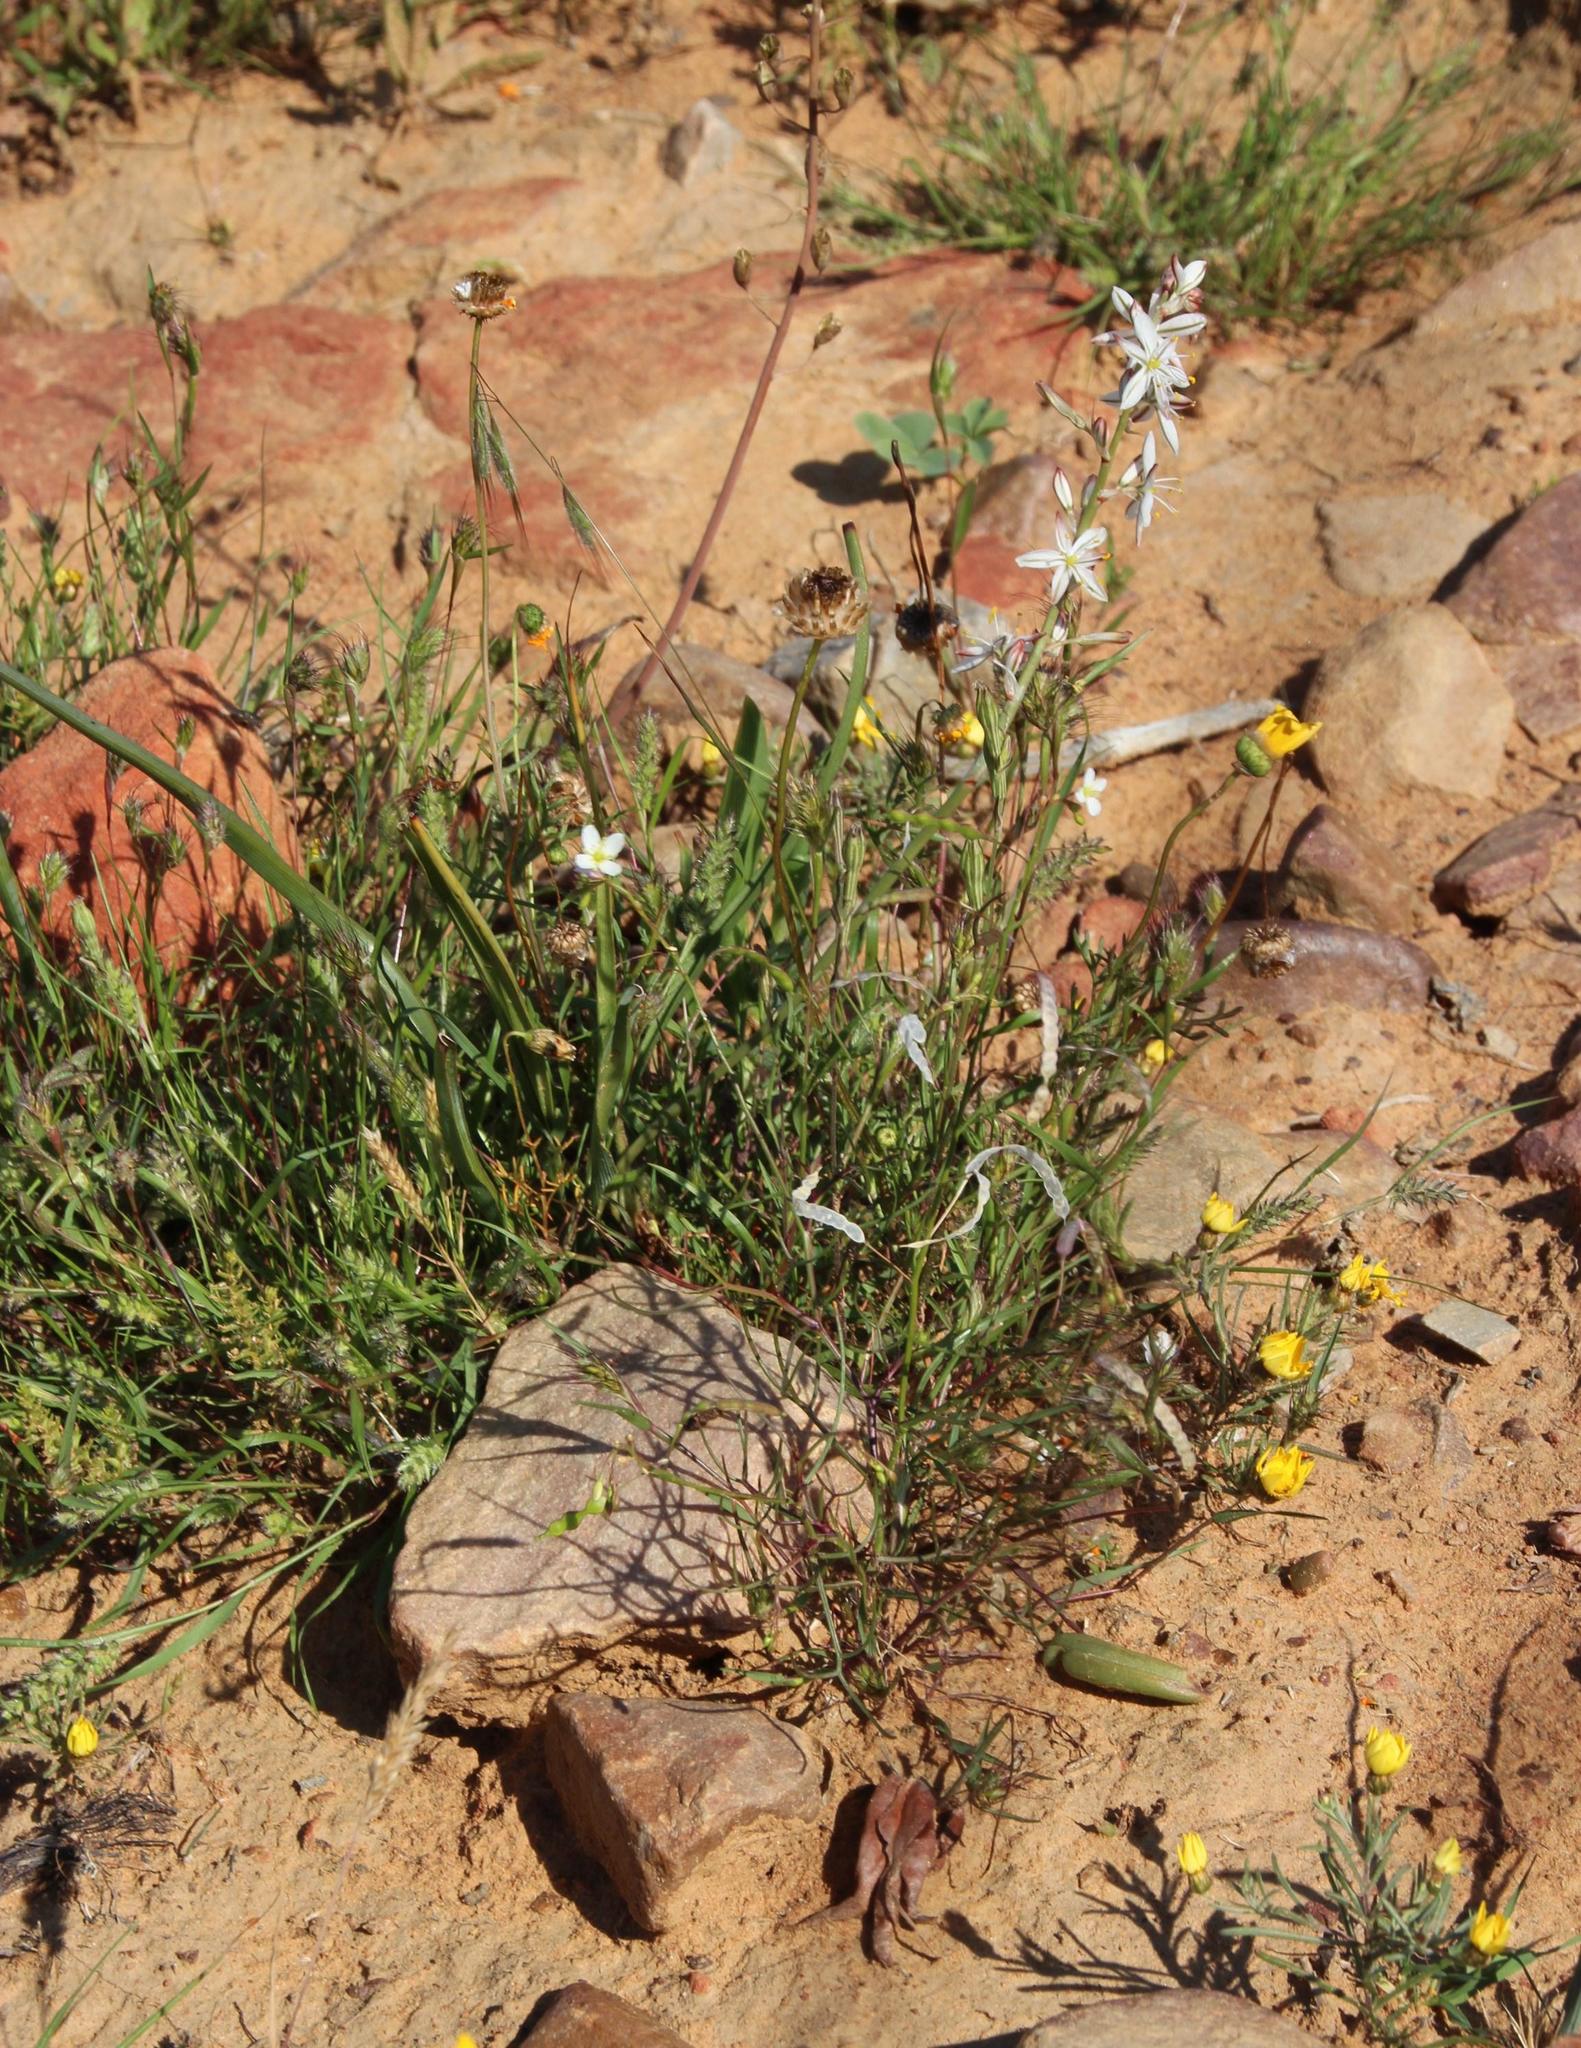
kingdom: Plantae
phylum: Tracheophyta
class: Magnoliopsida
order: Brassicales
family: Brassicaceae
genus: Heliophila
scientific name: Heliophila variabilis
